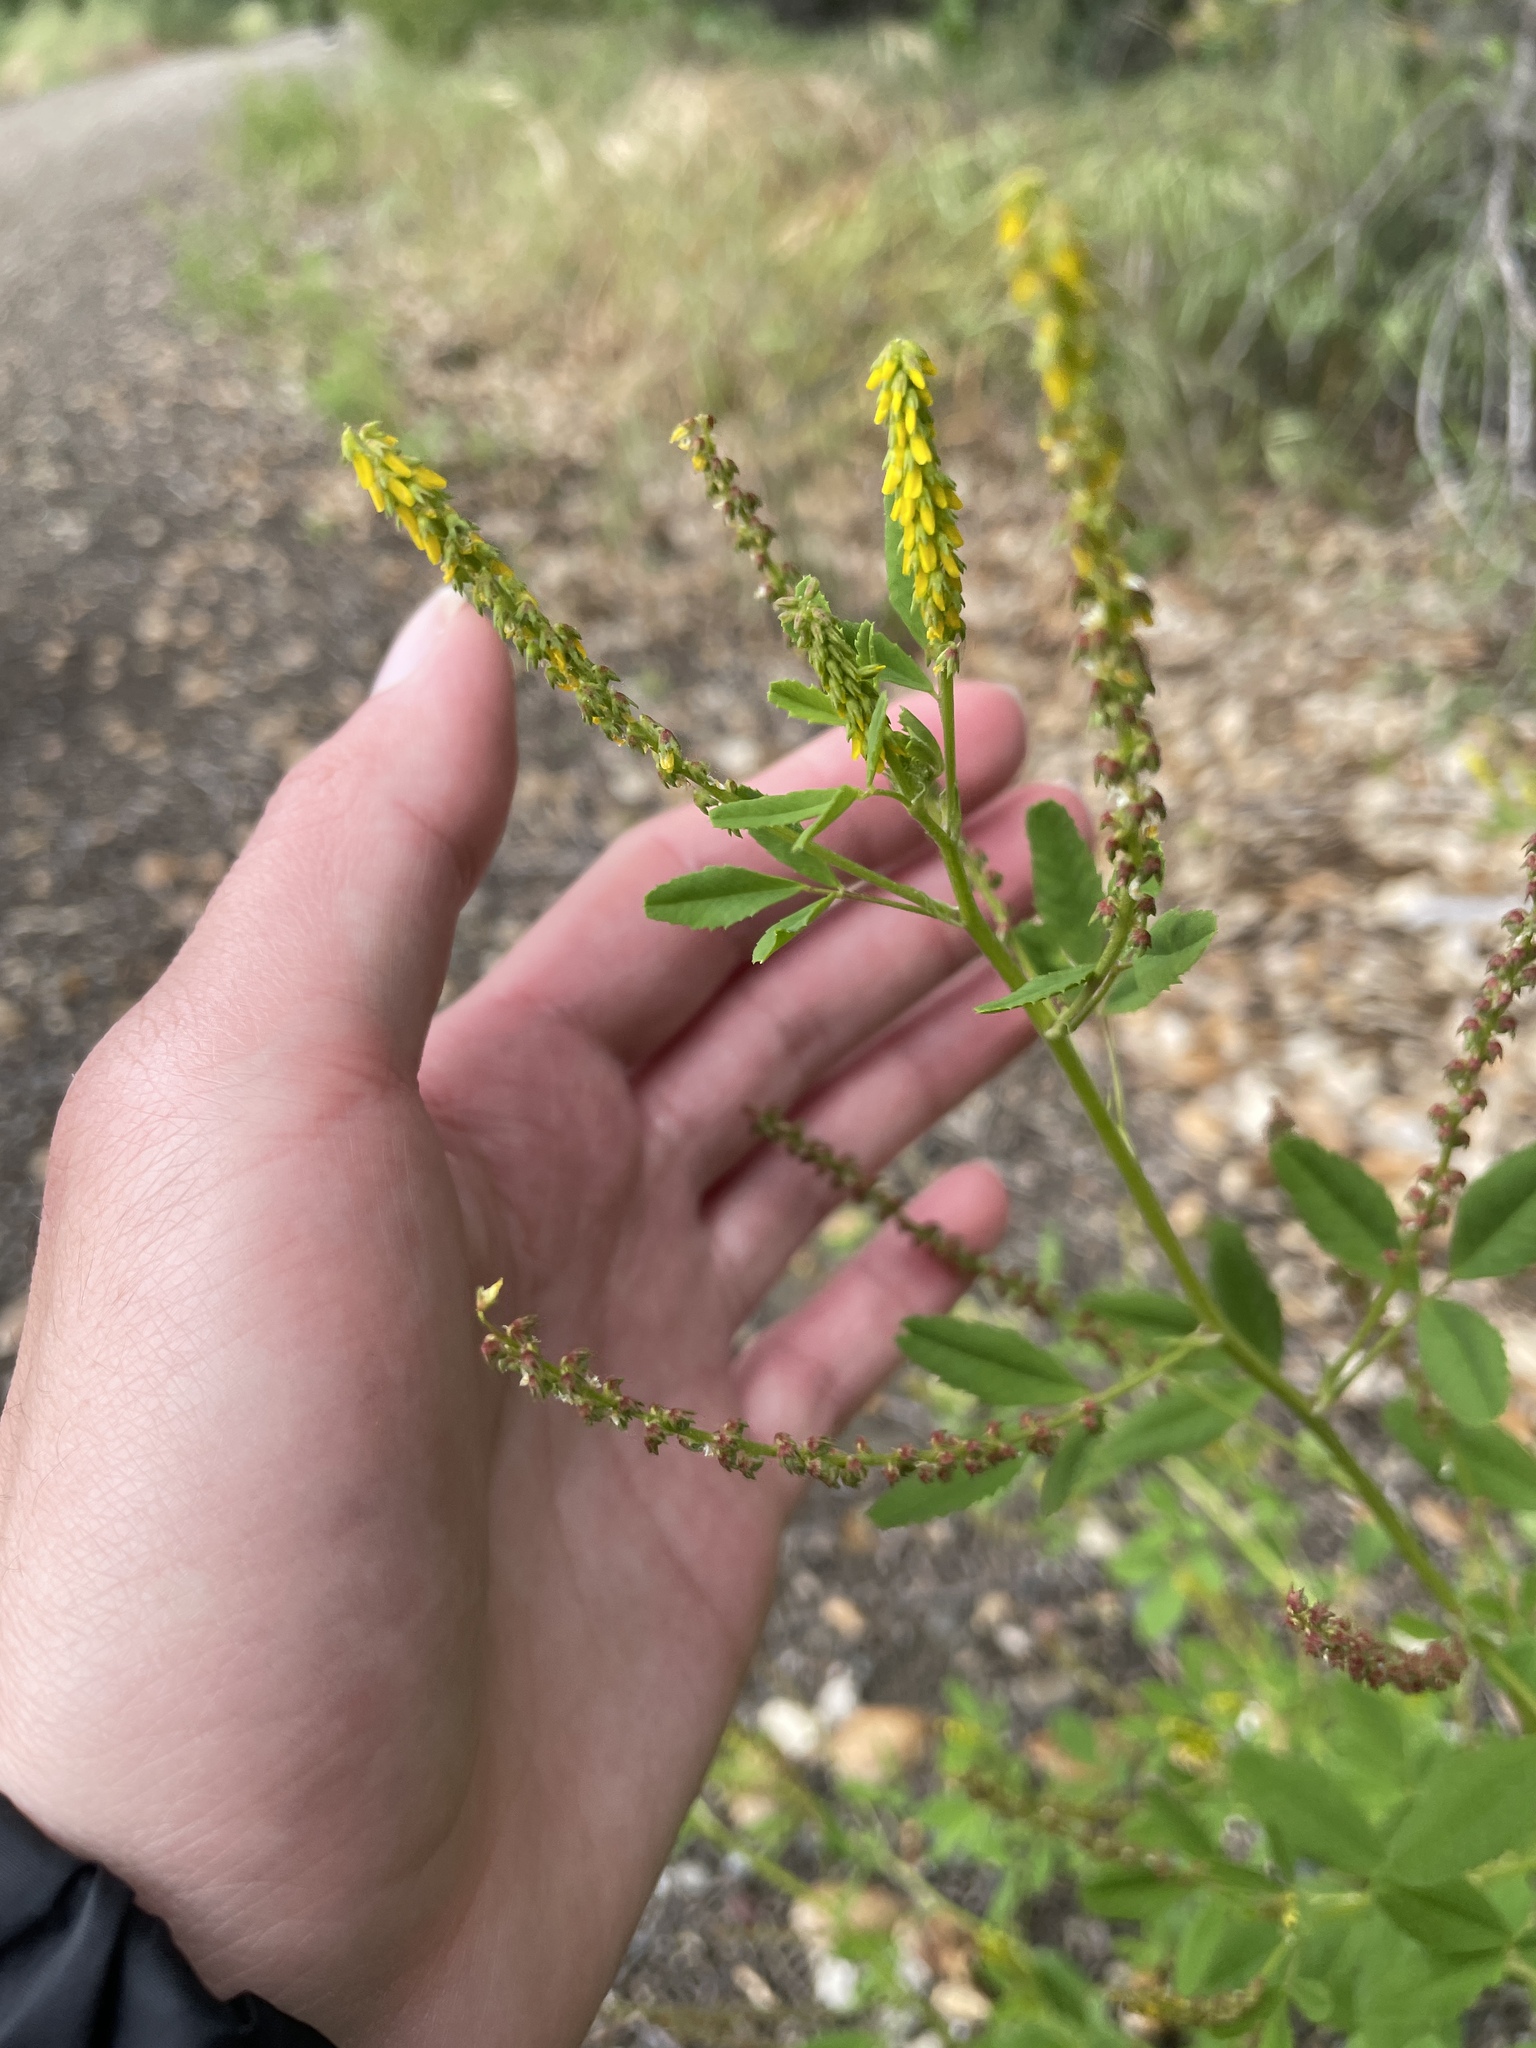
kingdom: Plantae
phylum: Tracheophyta
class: Magnoliopsida
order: Fabales
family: Fabaceae
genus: Melilotus
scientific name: Melilotus indicus
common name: Small melilot
